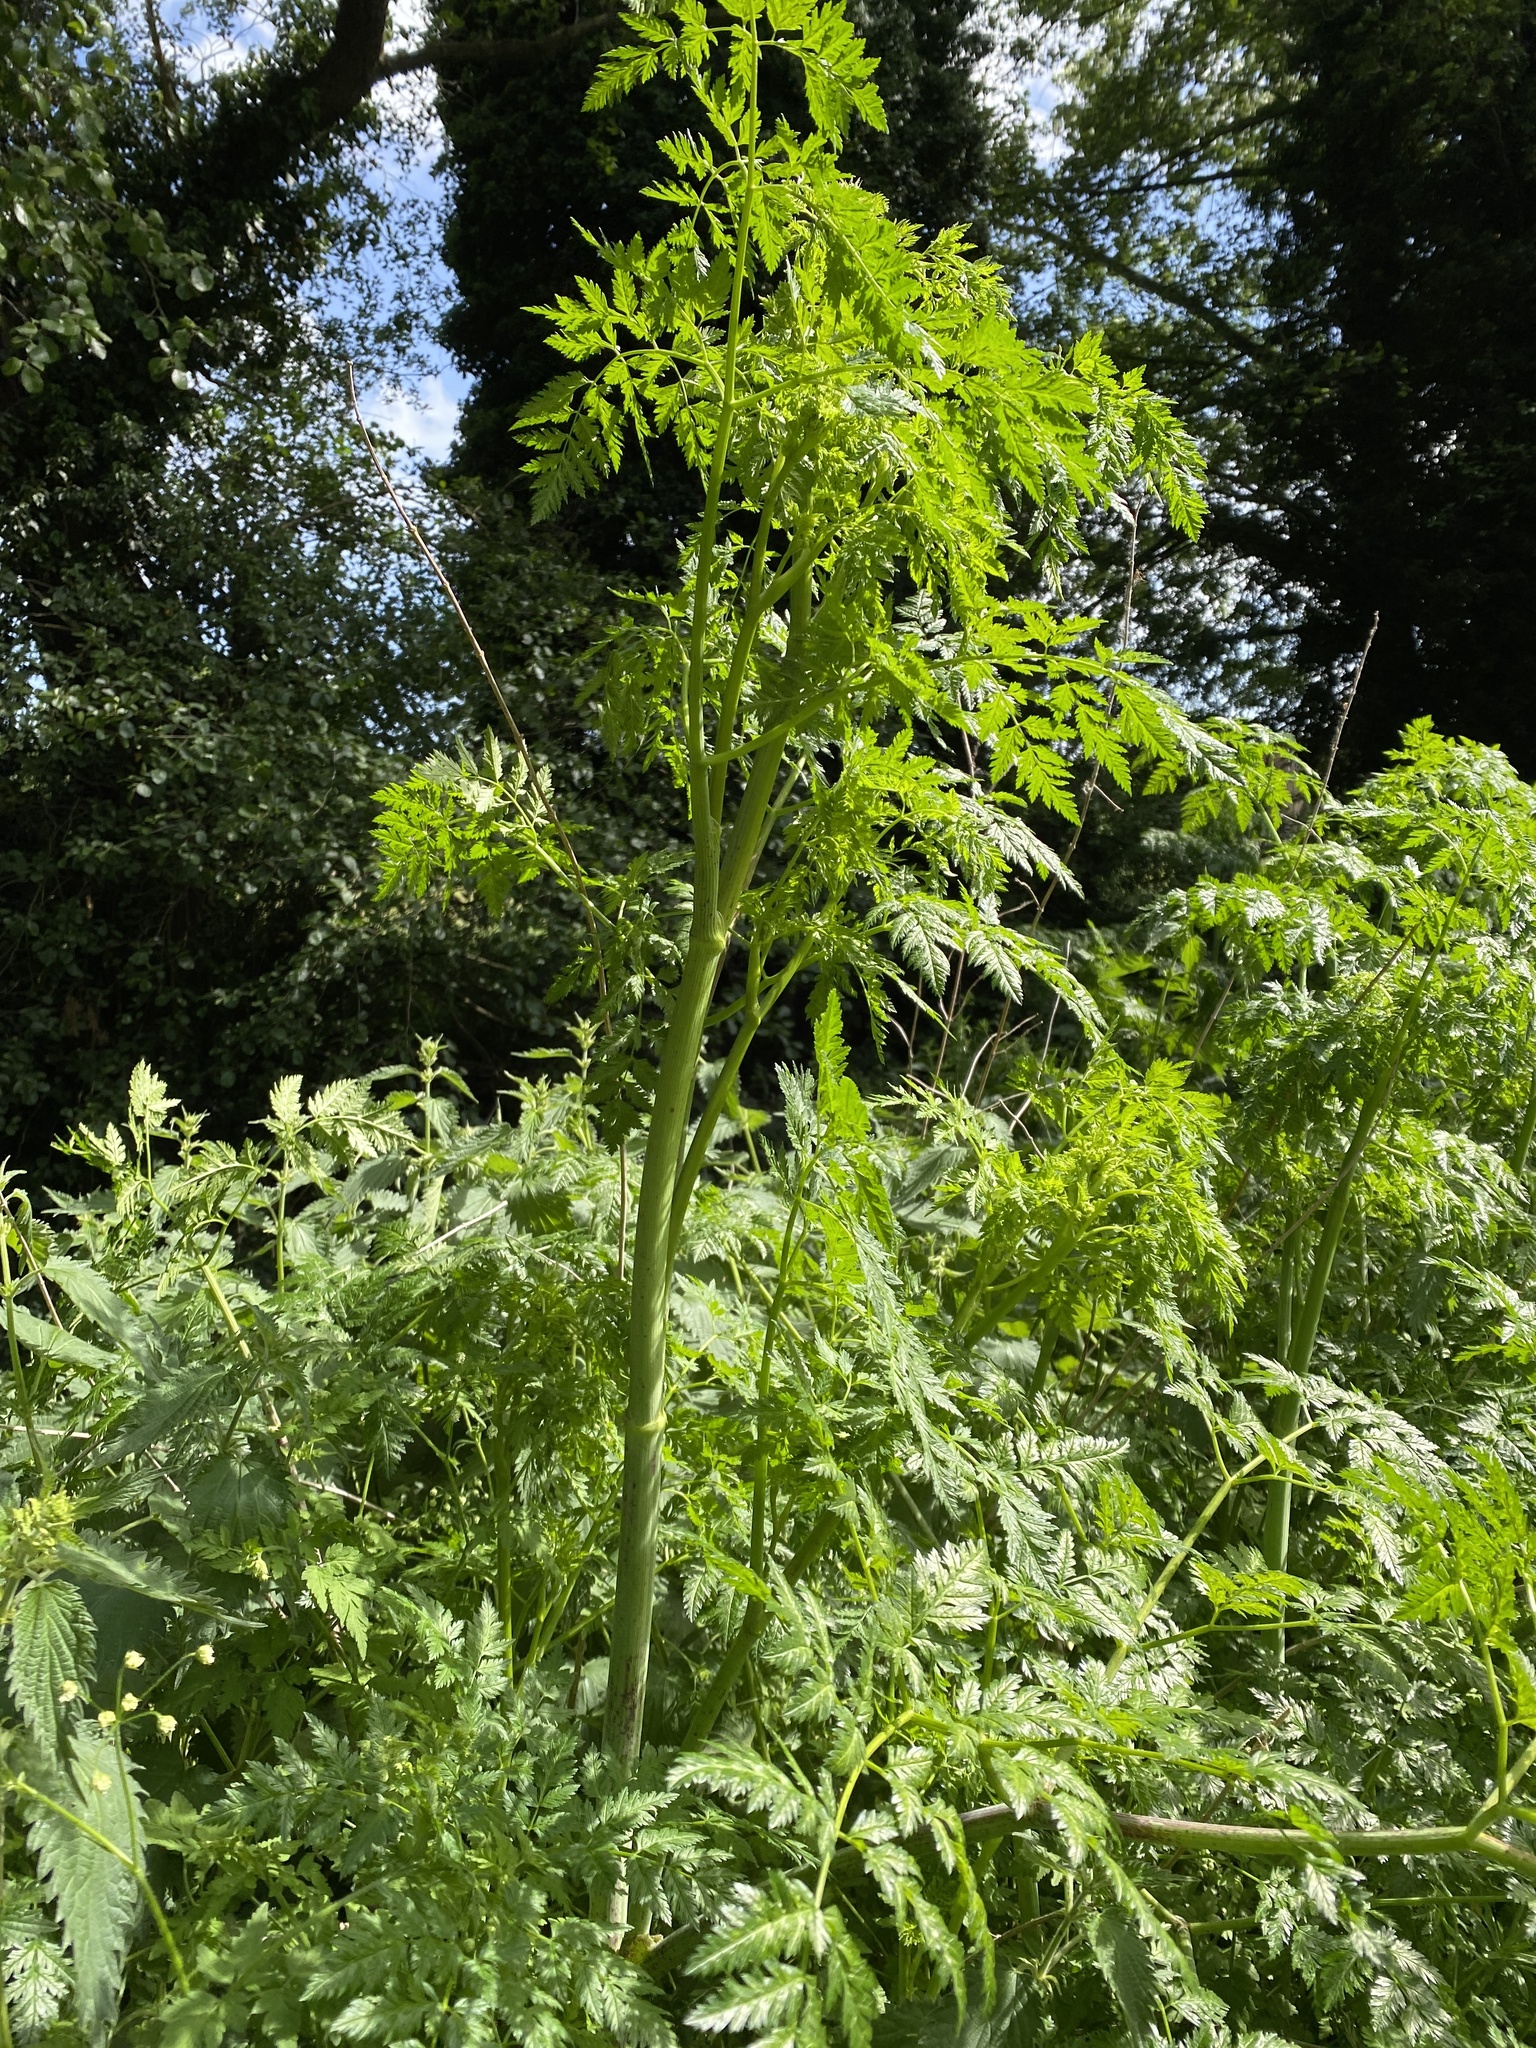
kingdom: Plantae
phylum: Tracheophyta
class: Magnoliopsida
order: Apiales
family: Apiaceae
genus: Conium
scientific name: Conium maculatum
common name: Hemlock
